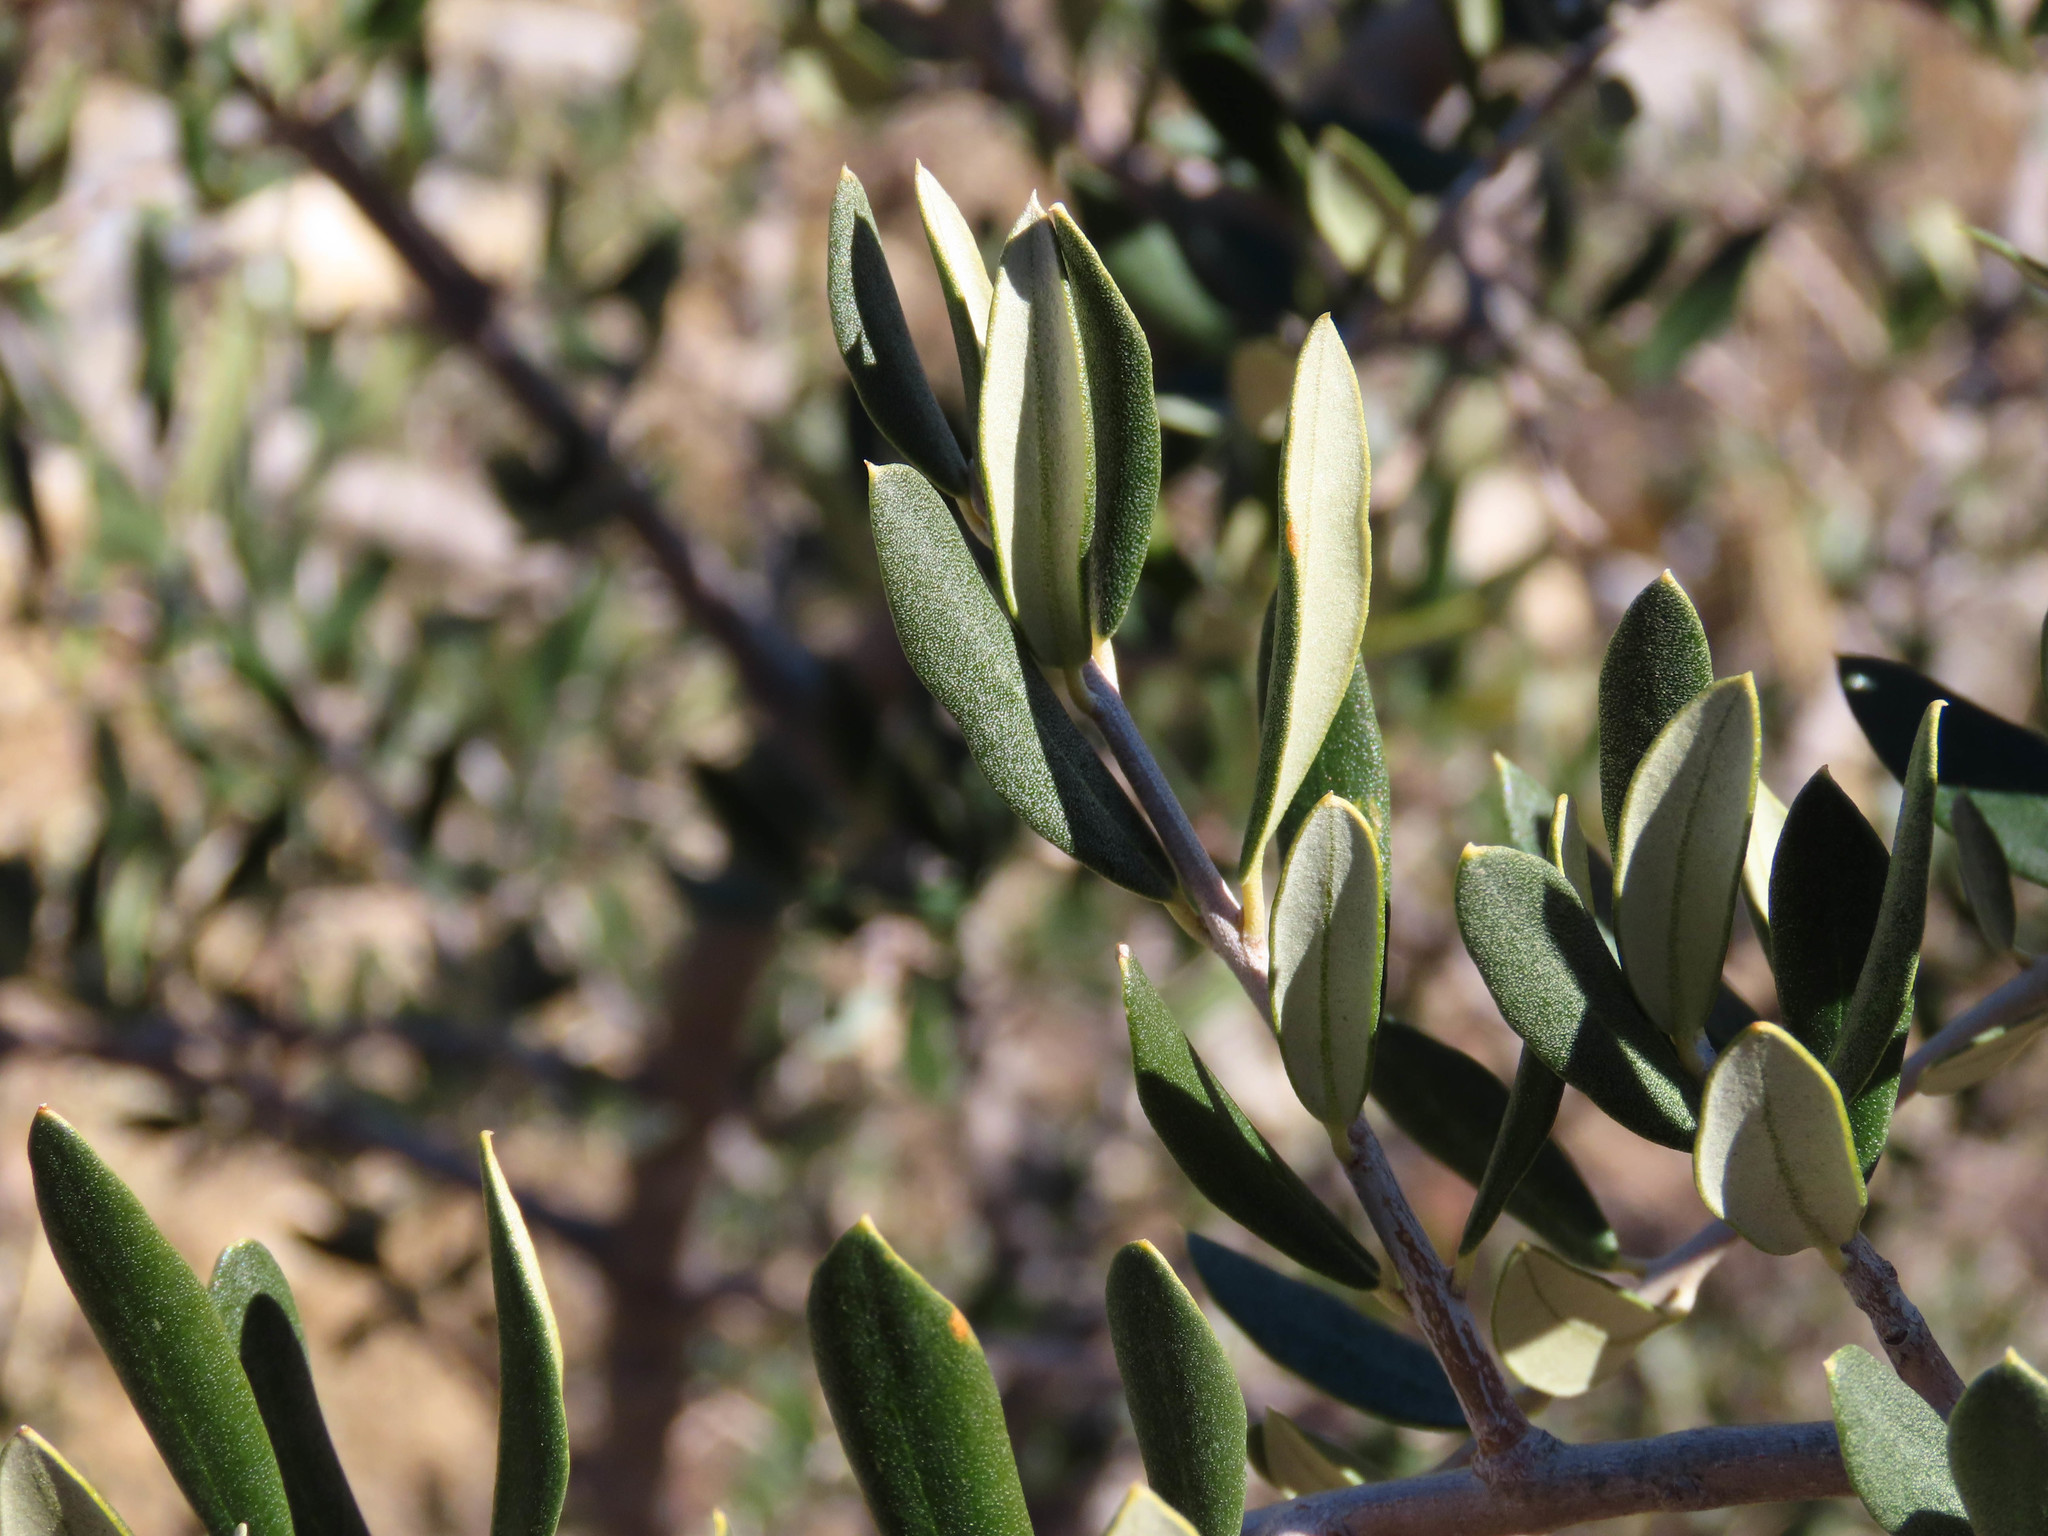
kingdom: Plantae
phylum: Tracheophyta
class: Magnoliopsida
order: Lamiales
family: Oleaceae
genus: Olea
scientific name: Olea europaea
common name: Olive
